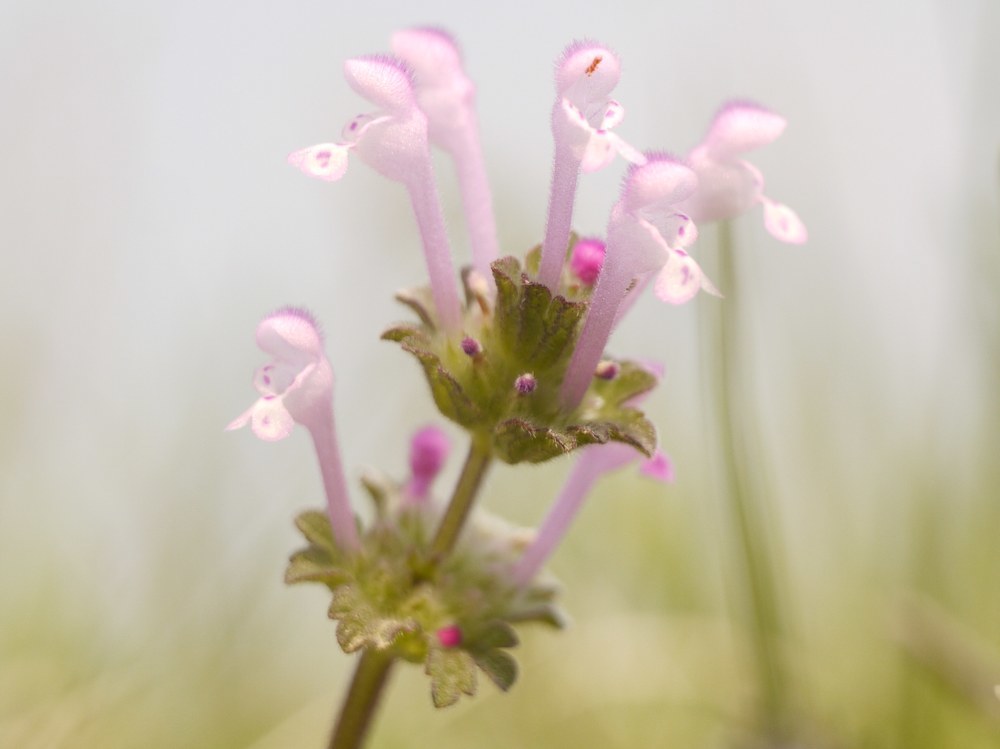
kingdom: Plantae
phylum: Tracheophyta
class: Magnoliopsida
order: Lamiales
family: Lamiaceae
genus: Lamium
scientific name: Lamium amplexicaule
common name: Henbit dead-nettle
